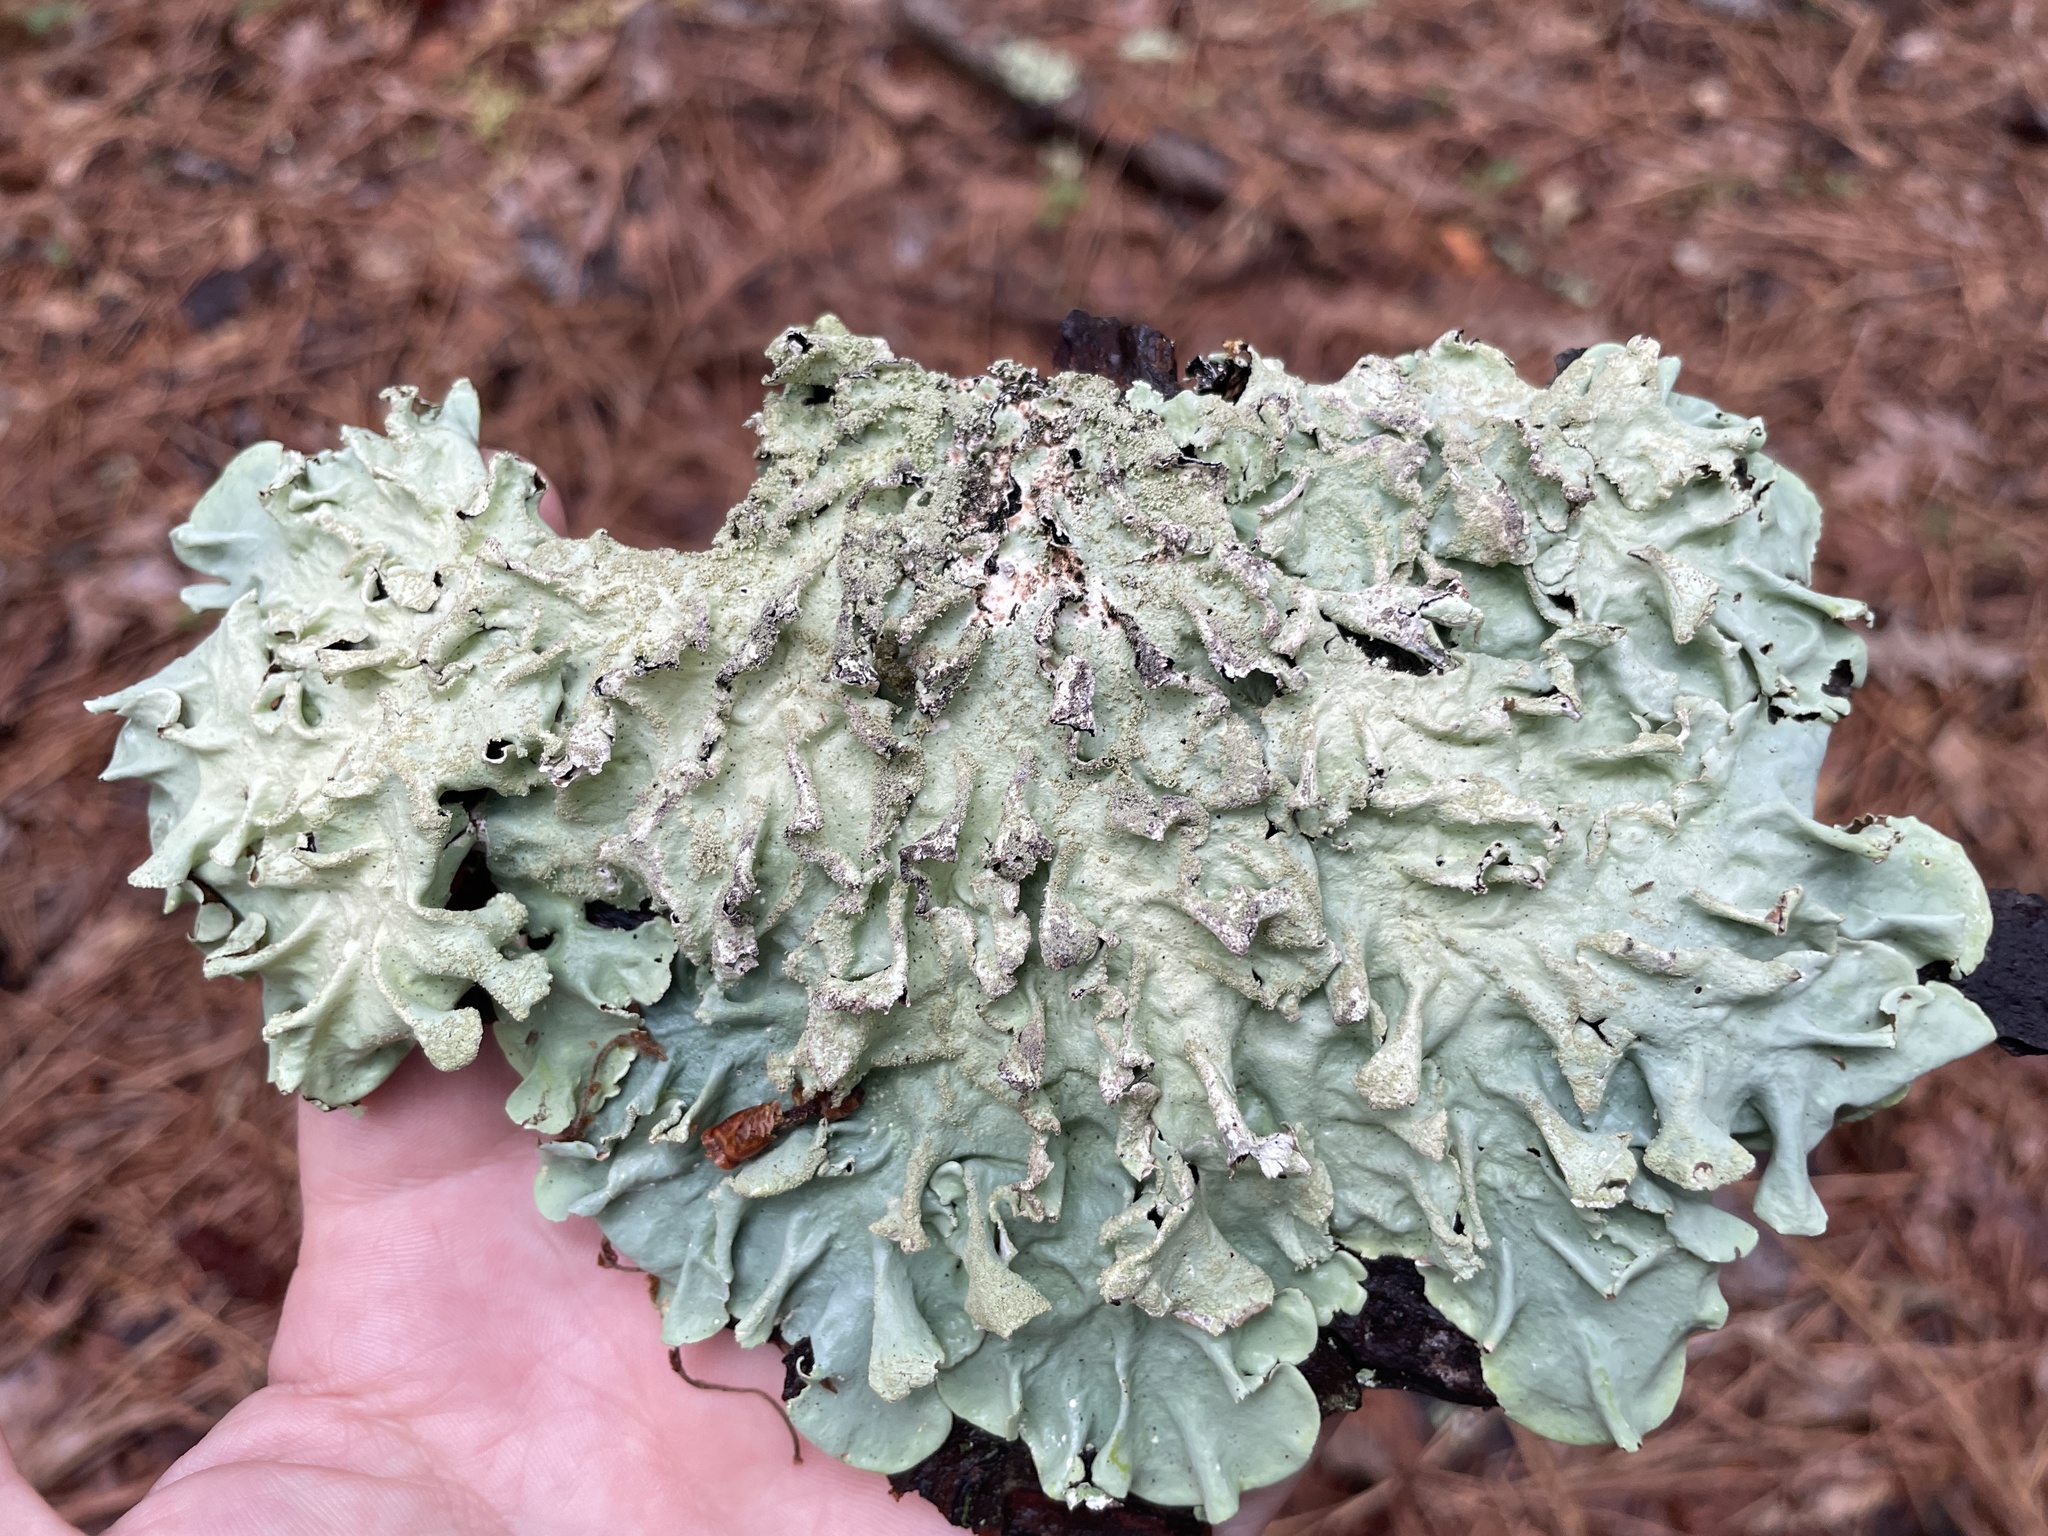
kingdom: Fungi
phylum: Ascomycota
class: Lecanoromycetes
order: Lecanorales
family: Parmeliaceae
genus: Parmotrema
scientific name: Parmotrema tinctorum
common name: Old gray ruffles
